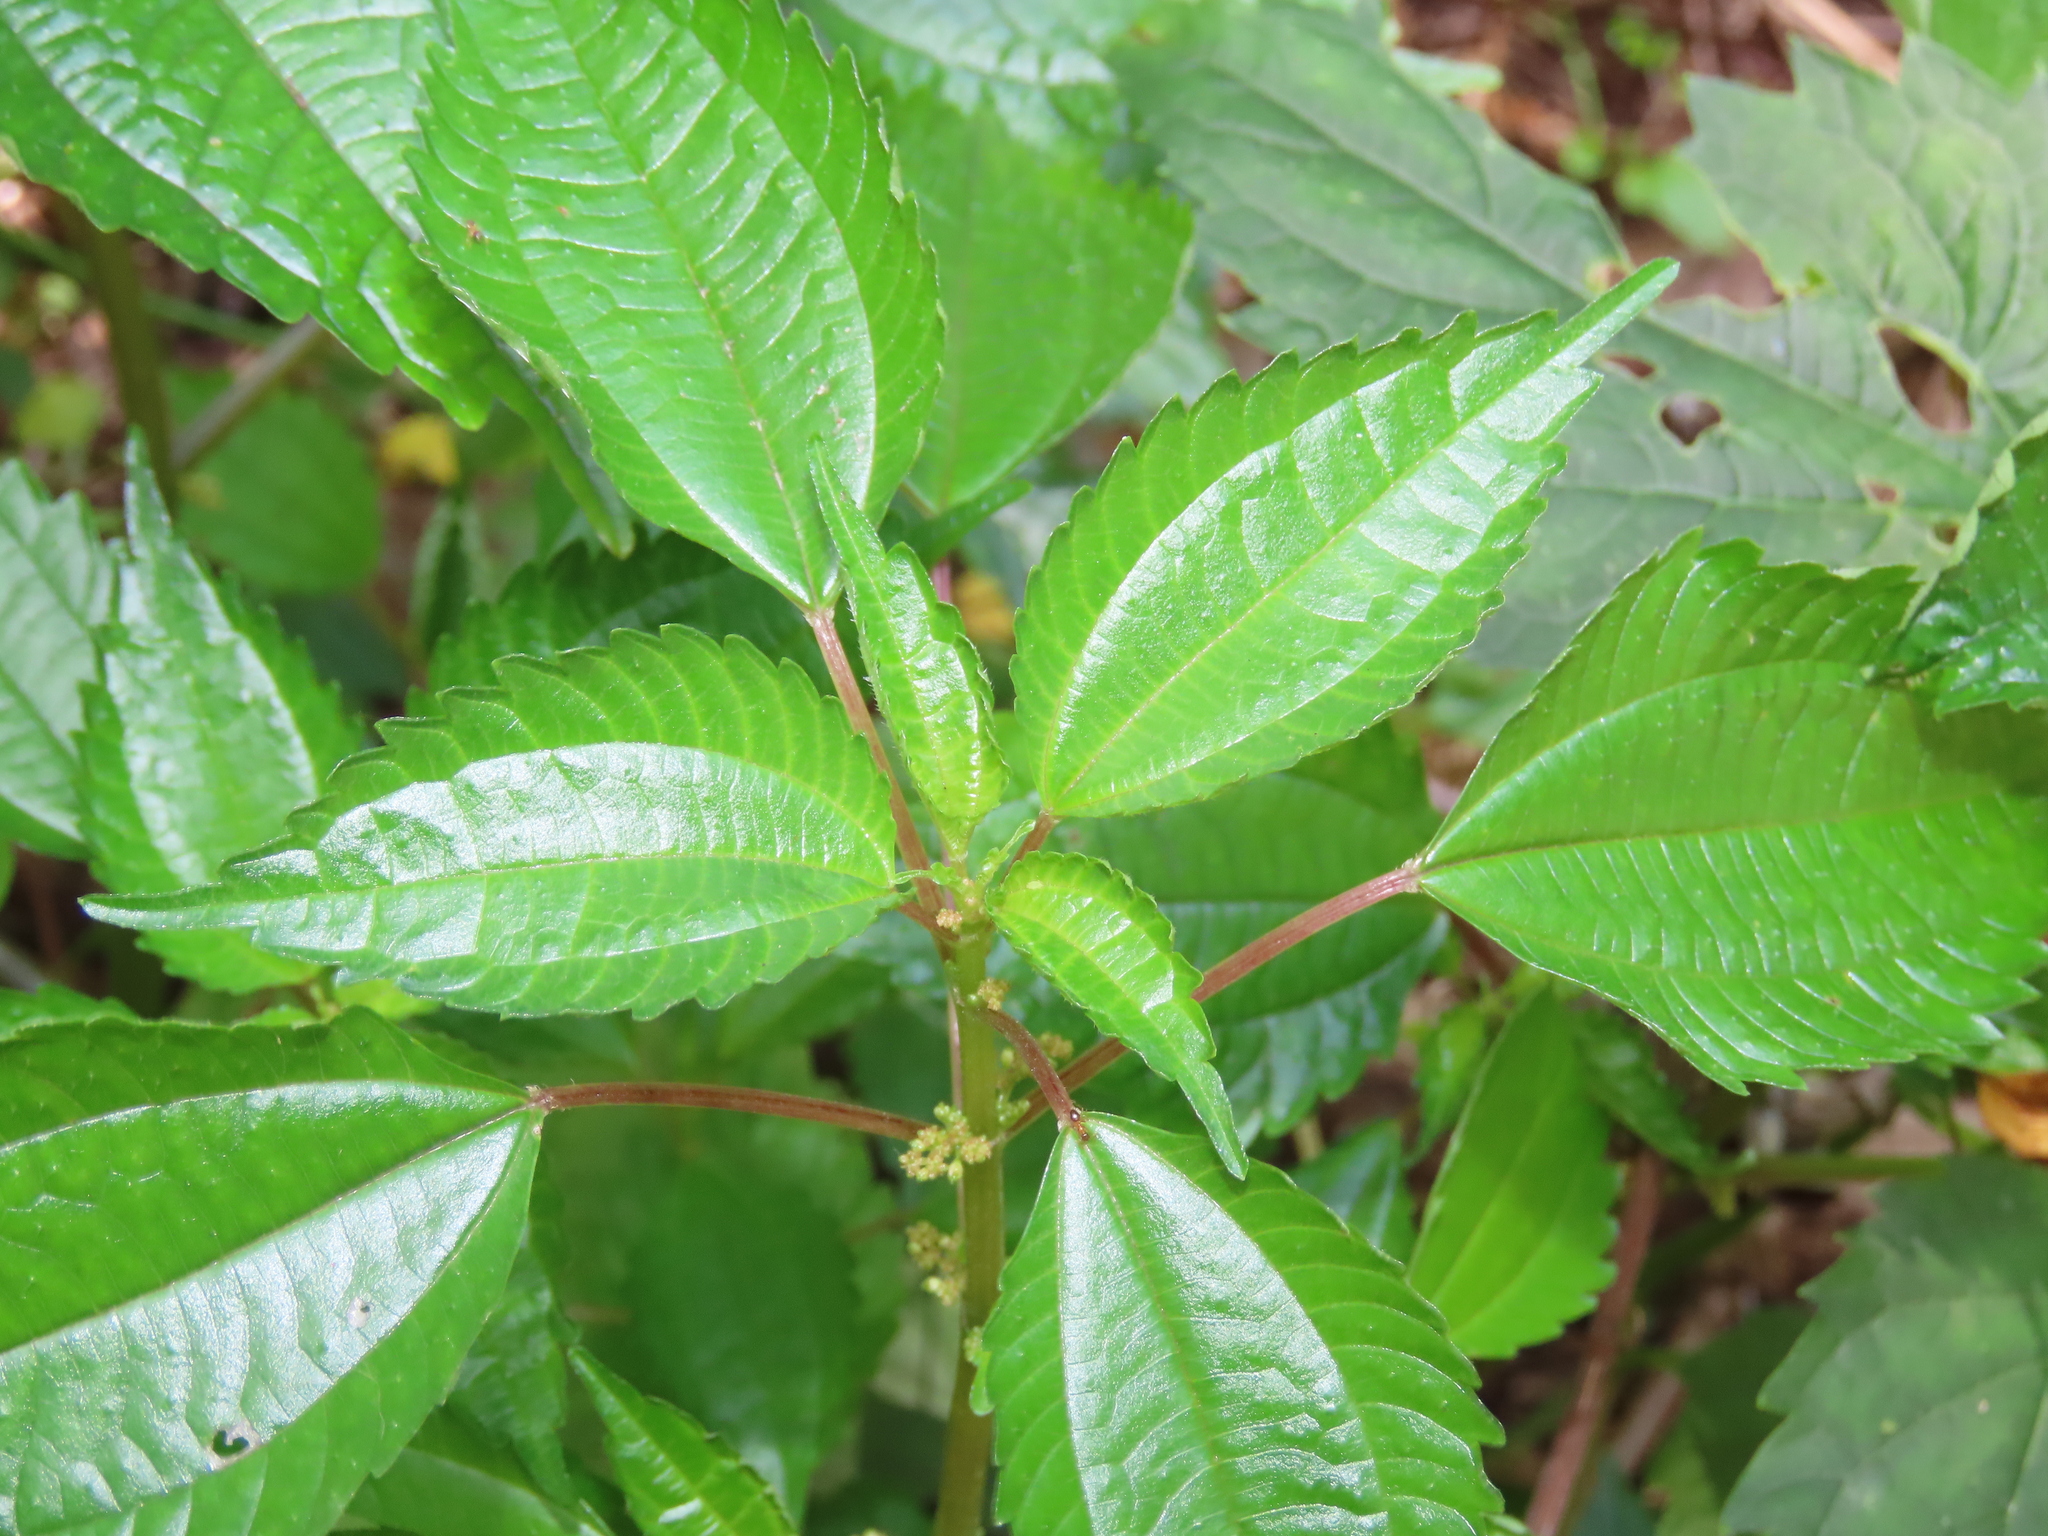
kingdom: Plantae
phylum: Tracheophyta
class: Magnoliopsida
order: Rosales
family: Urticaceae
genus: Pilea
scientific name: Pilea pumila
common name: Clearweed
